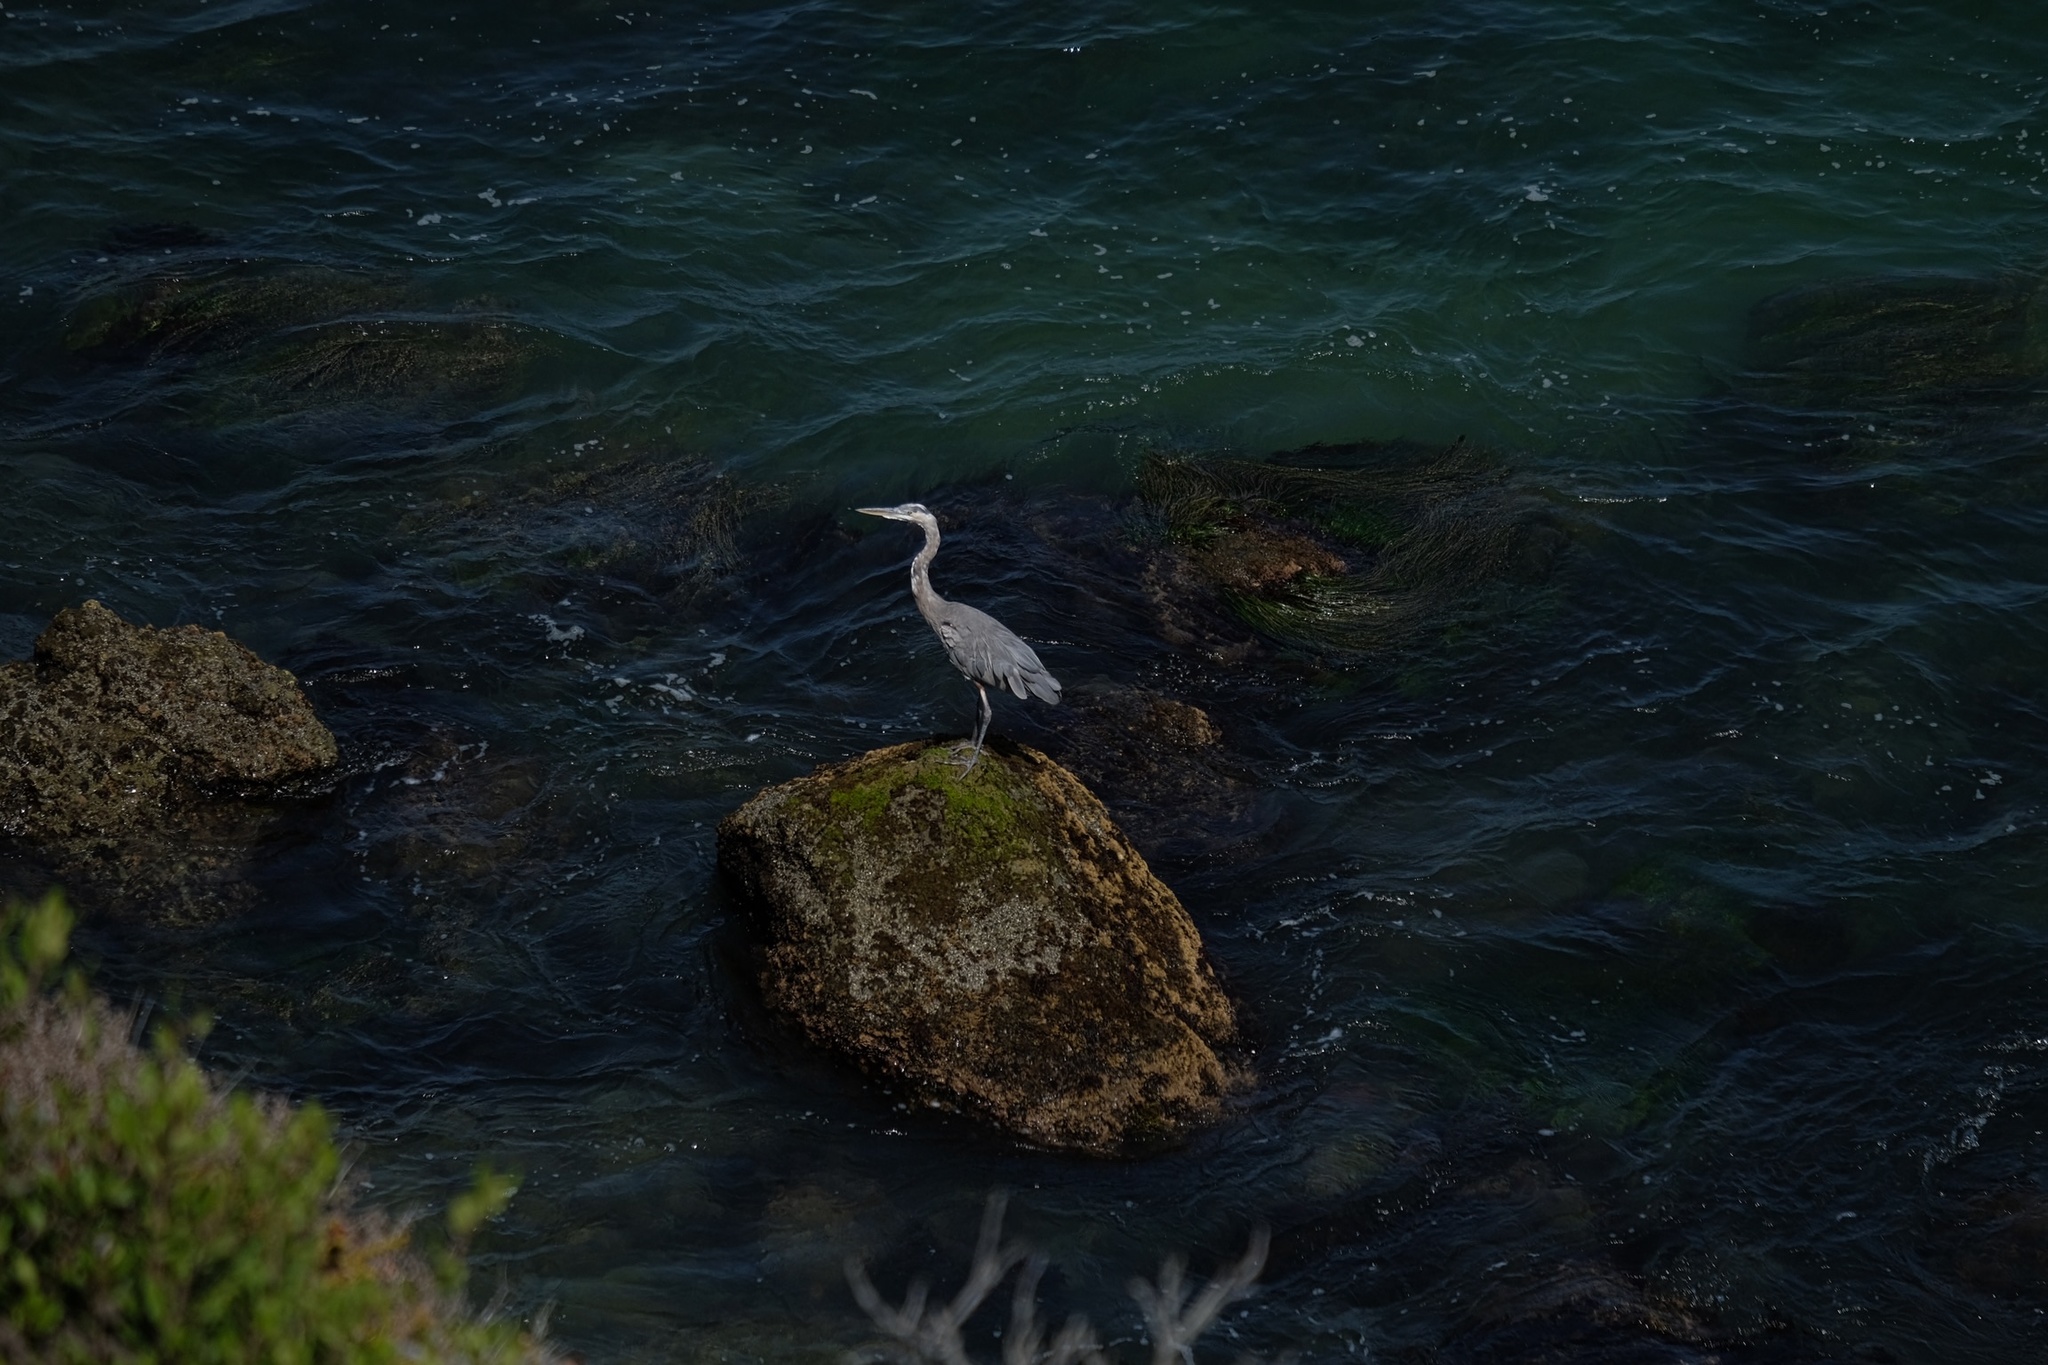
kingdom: Animalia
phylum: Chordata
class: Aves
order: Pelecaniformes
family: Ardeidae
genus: Ardea
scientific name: Ardea herodias
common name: Great blue heron
